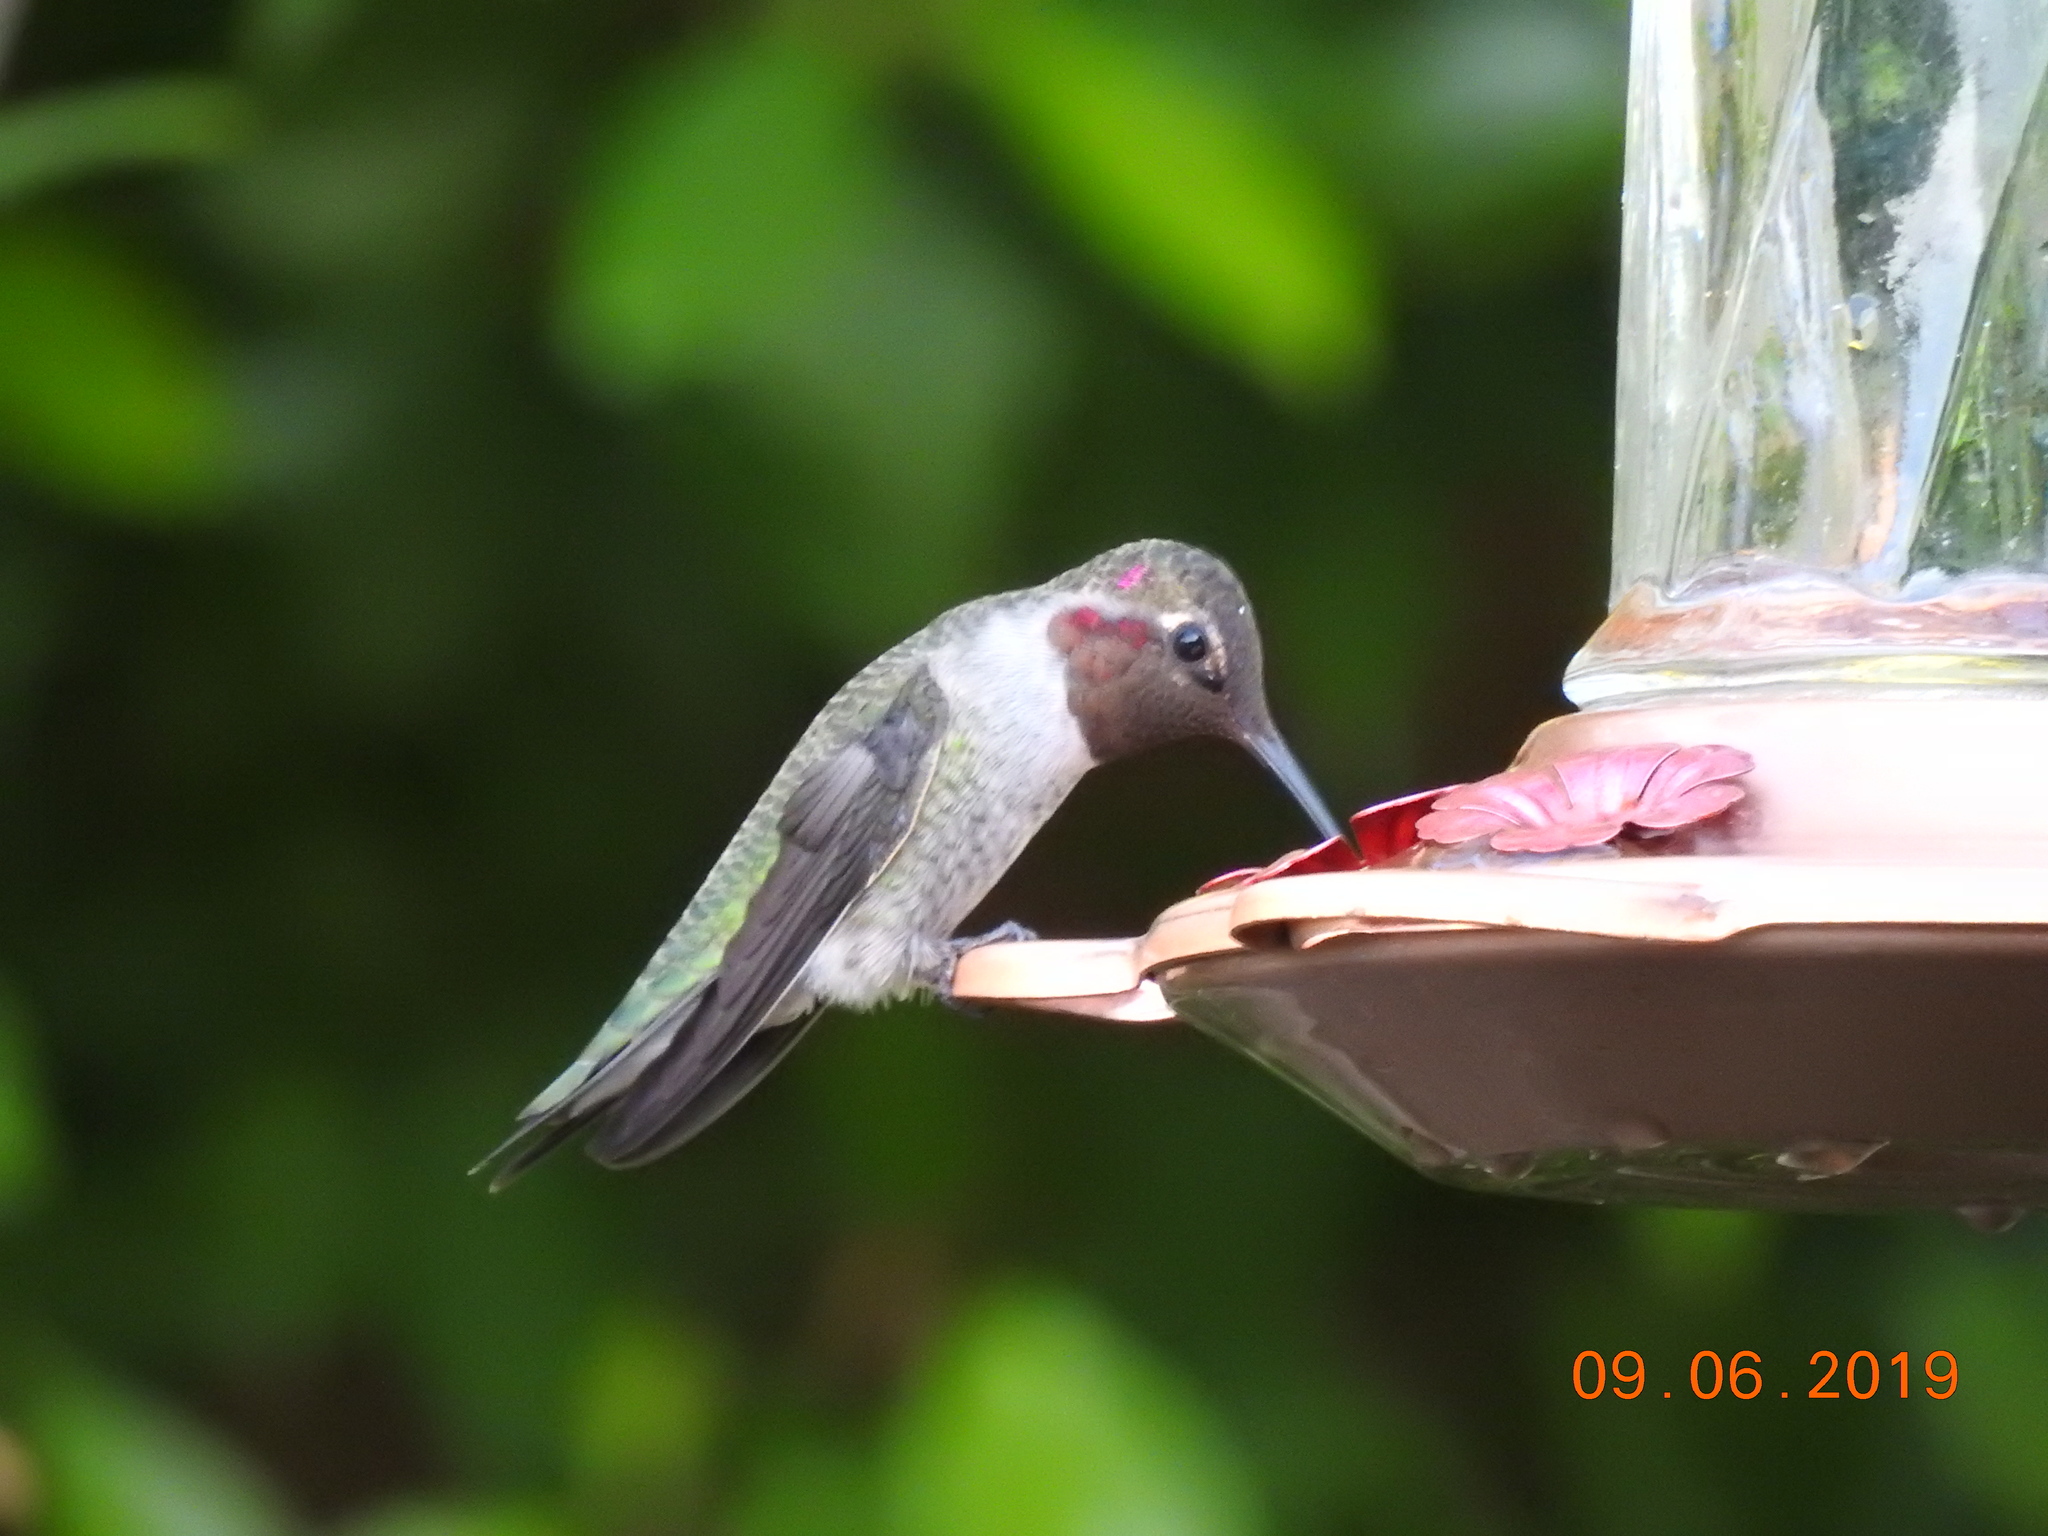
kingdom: Animalia
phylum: Chordata
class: Aves
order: Apodiformes
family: Trochilidae
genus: Calypte
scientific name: Calypte anna
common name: Anna's hummingbird
